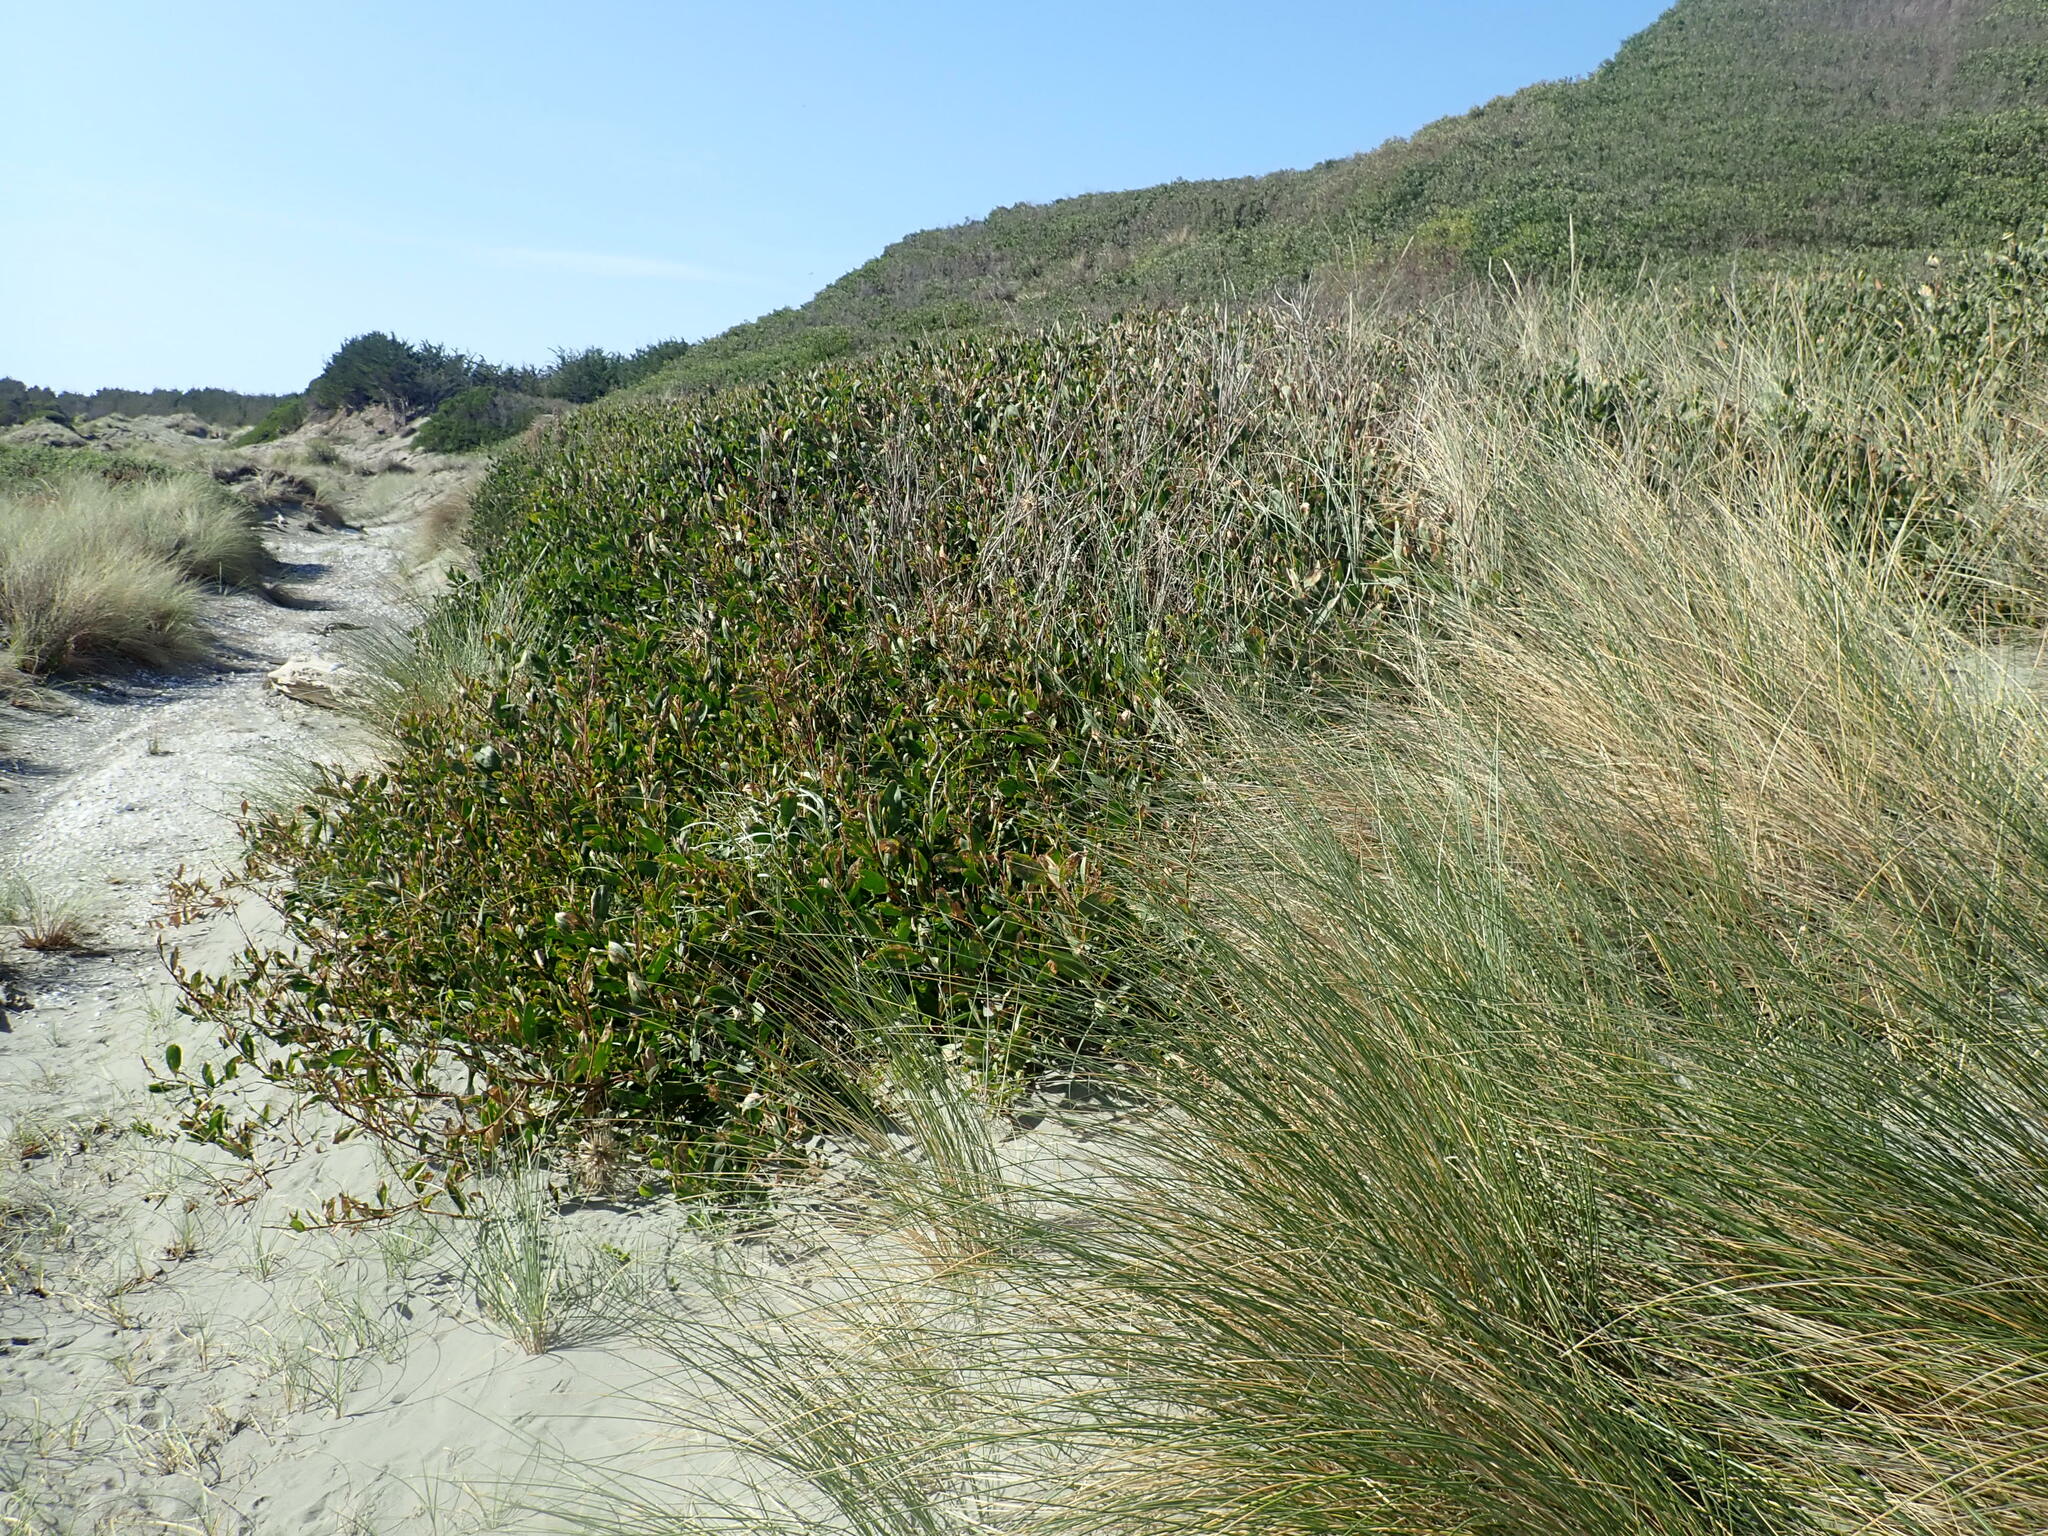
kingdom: Plantae
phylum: Tracheophyta
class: Magnoliopsida
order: Fabales
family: Fabaceae
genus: Acacia
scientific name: Acacia longifolia
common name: Sydney golden wattle
